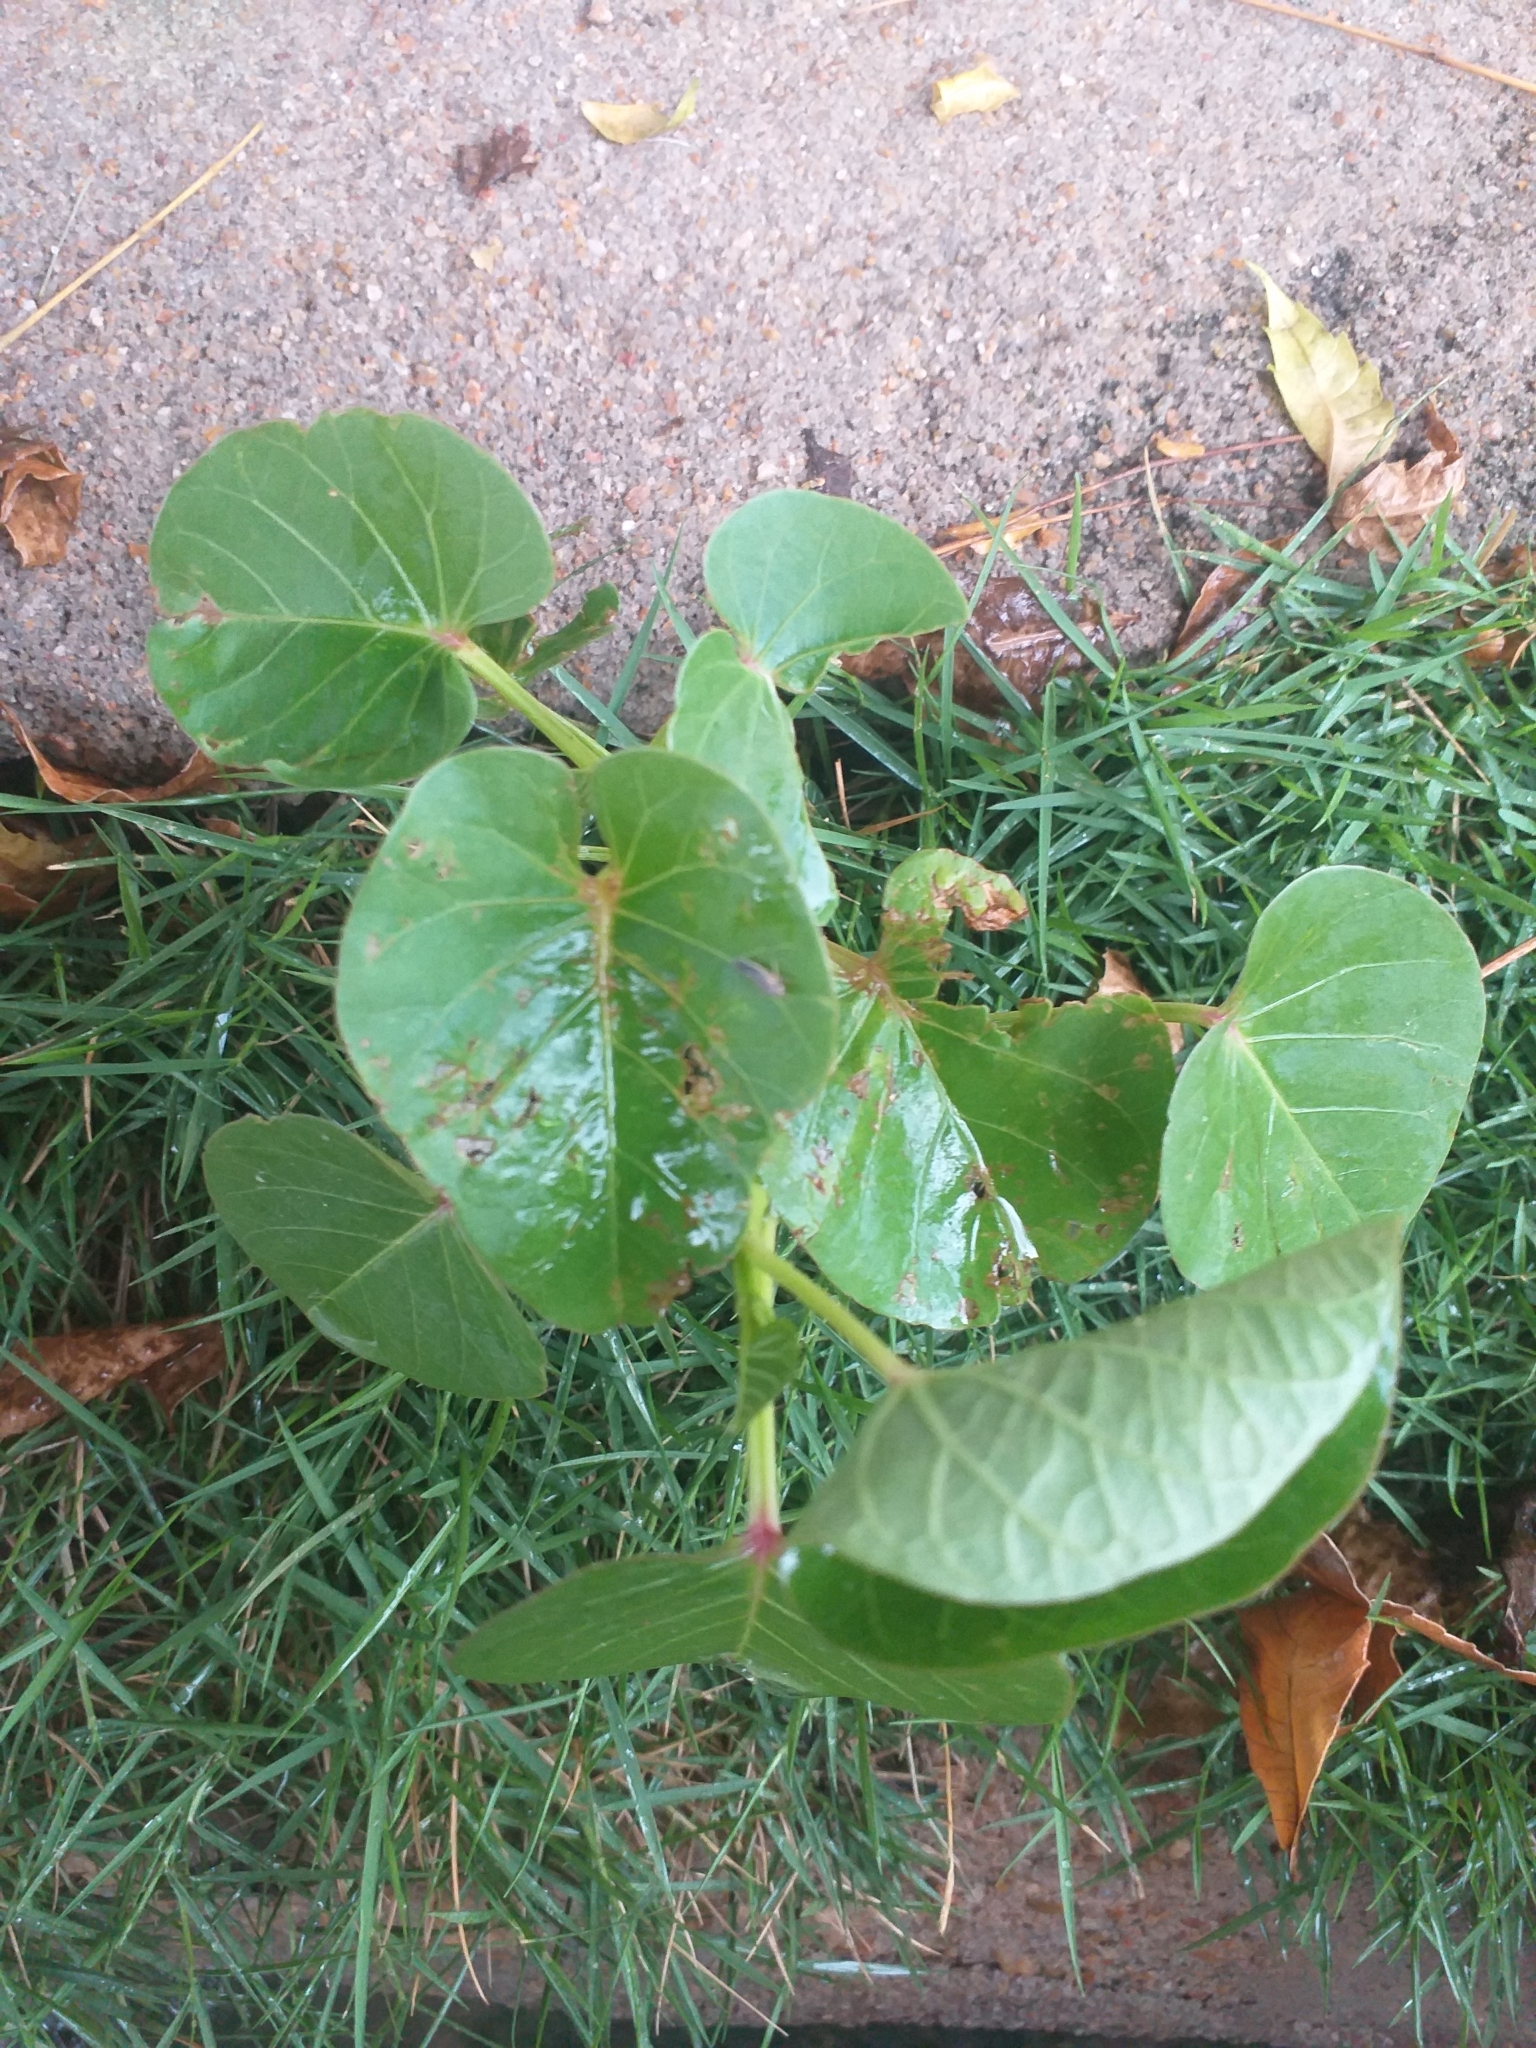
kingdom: Plantae
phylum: Tracheophyta
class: Magnoliopsida
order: Solanales
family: Convolvulaceae
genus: Ipomoea
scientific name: Ipomoea asarifolia
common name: Ginger-leaf morning-glory
